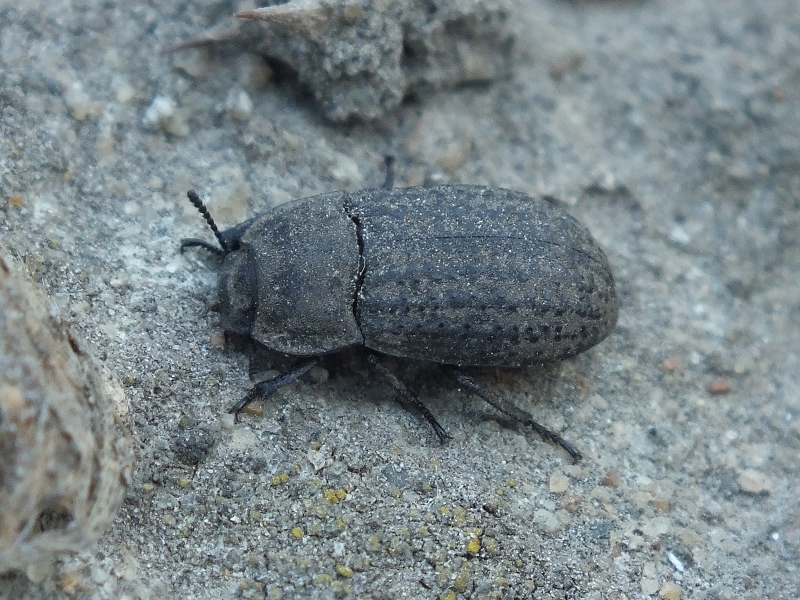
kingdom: Animalia
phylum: Arthropoda
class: Insecta
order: Coleoptera
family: Tenebrionidae
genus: Opatrum
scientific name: Opatrum sabulosum
